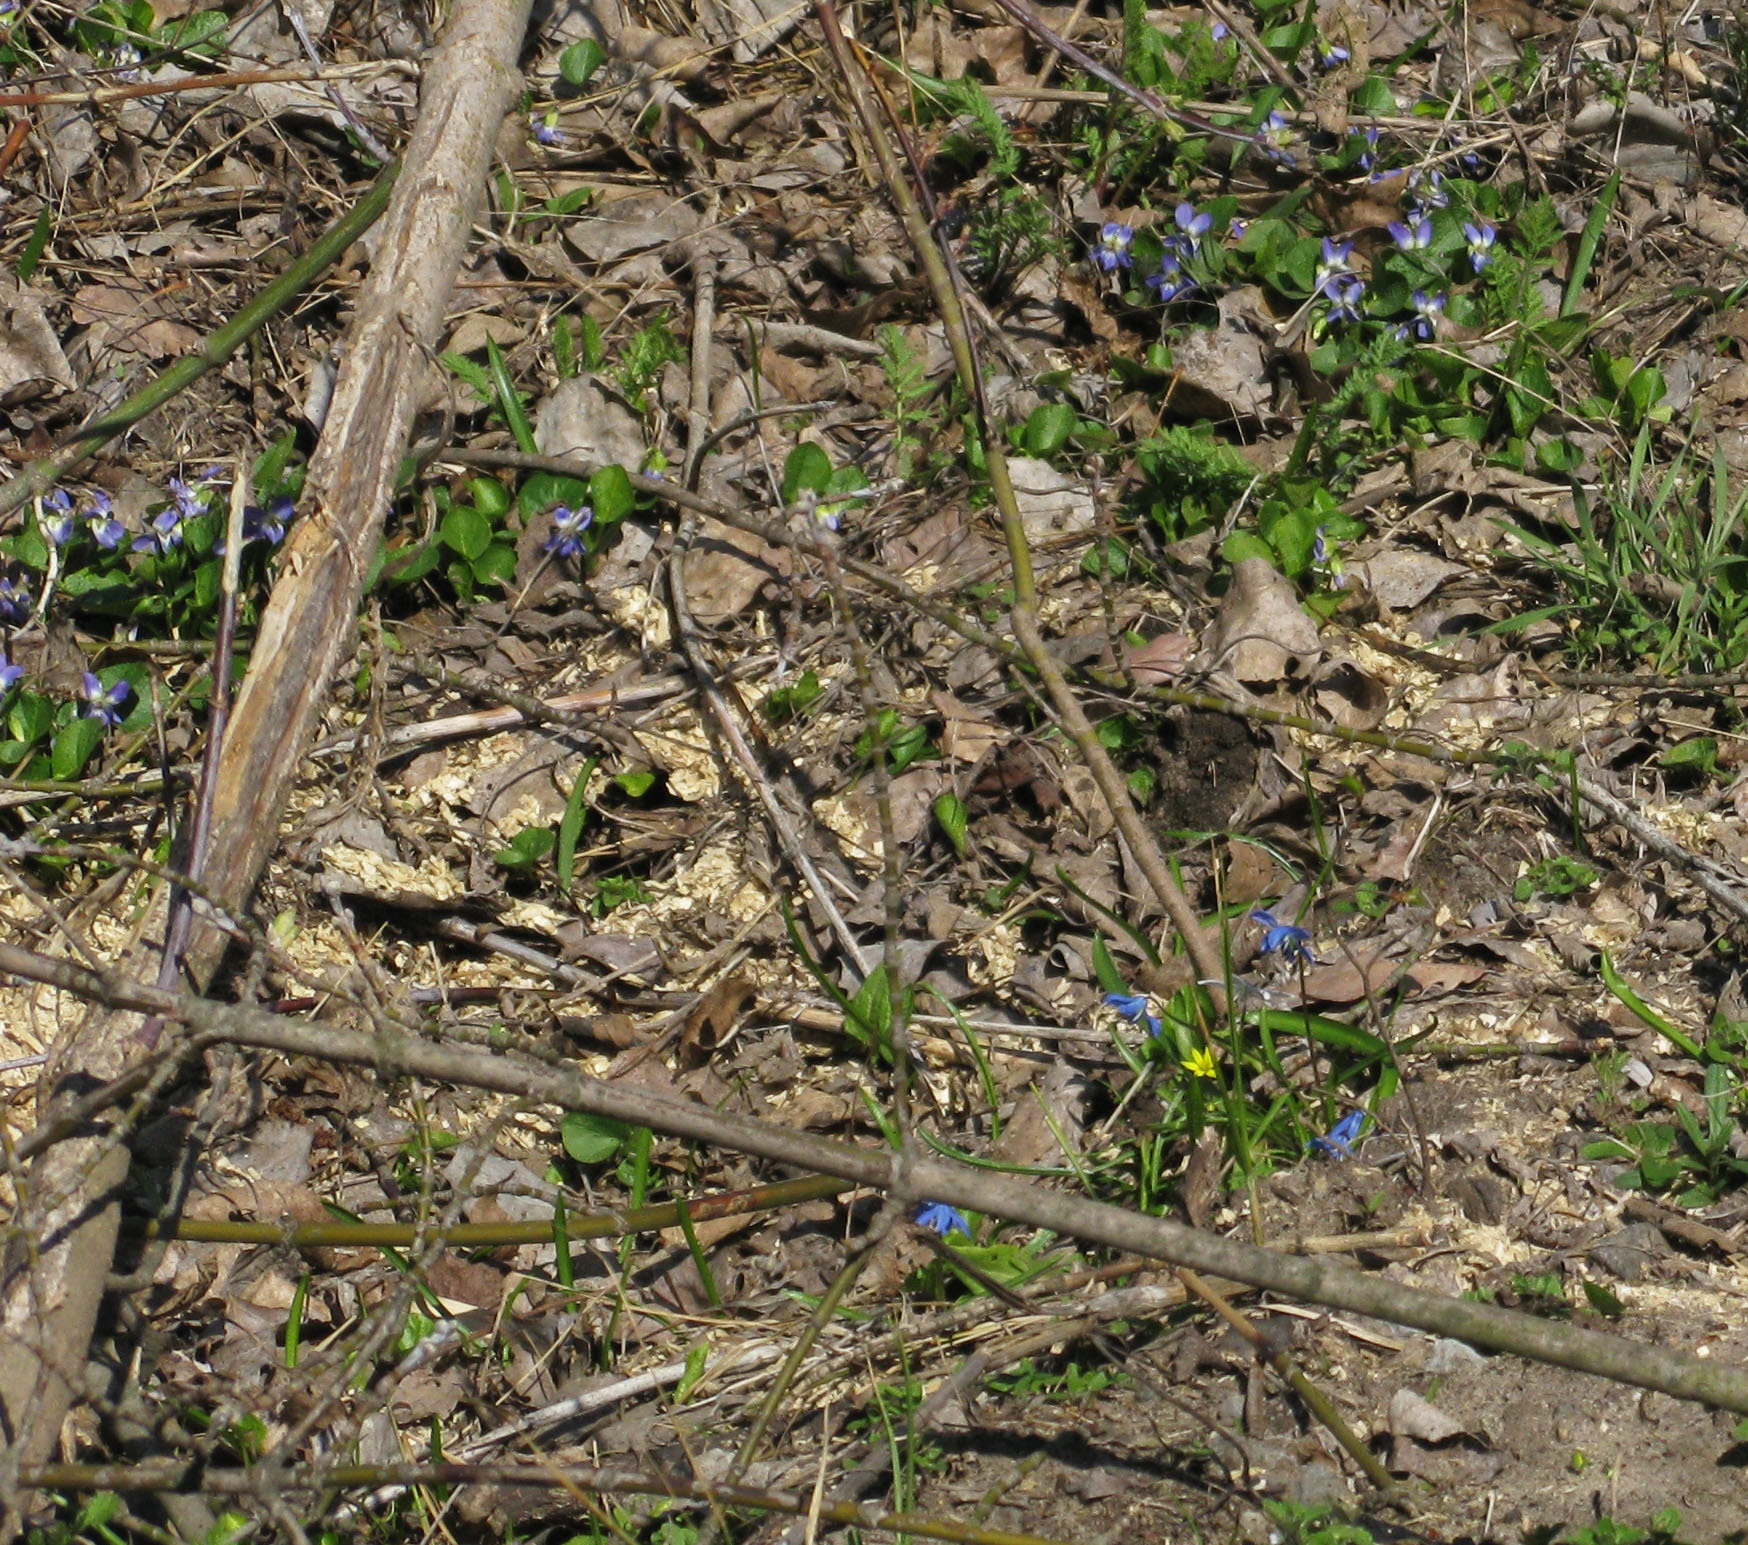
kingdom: Plantae
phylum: Tracheophyta
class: Magnoliopsida
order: Malpighiales
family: Violaceae
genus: Viola
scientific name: Viola suavis
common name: Russian violet
